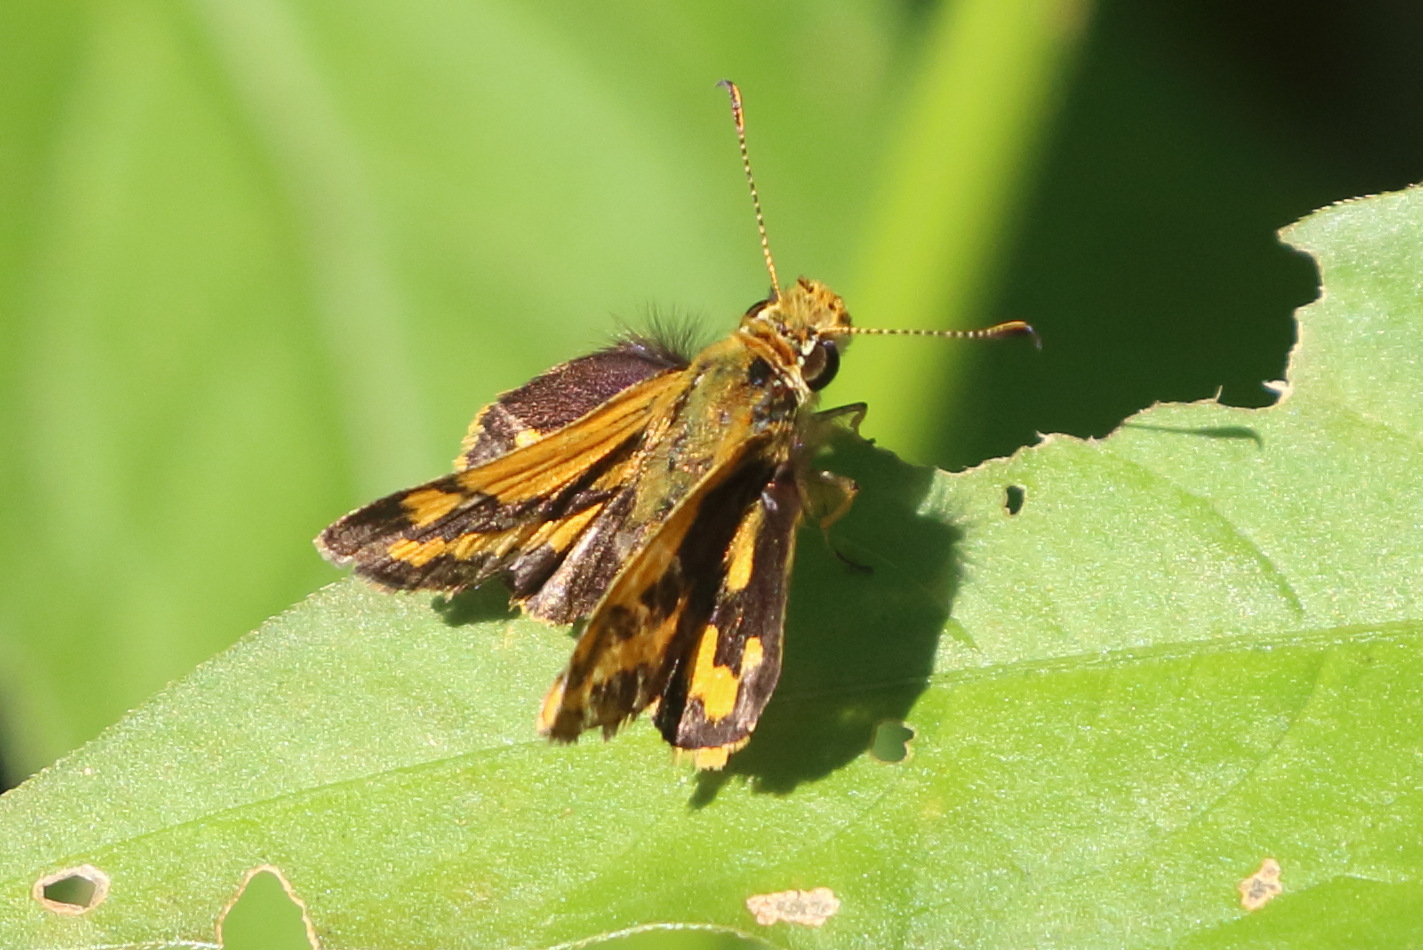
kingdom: Animalia
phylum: Arthropoda
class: Insecta
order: Lepidoptera
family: Hesperiidae
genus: Ocybadistes
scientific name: Ocybadistes walkeri
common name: Yellow-banded dart
